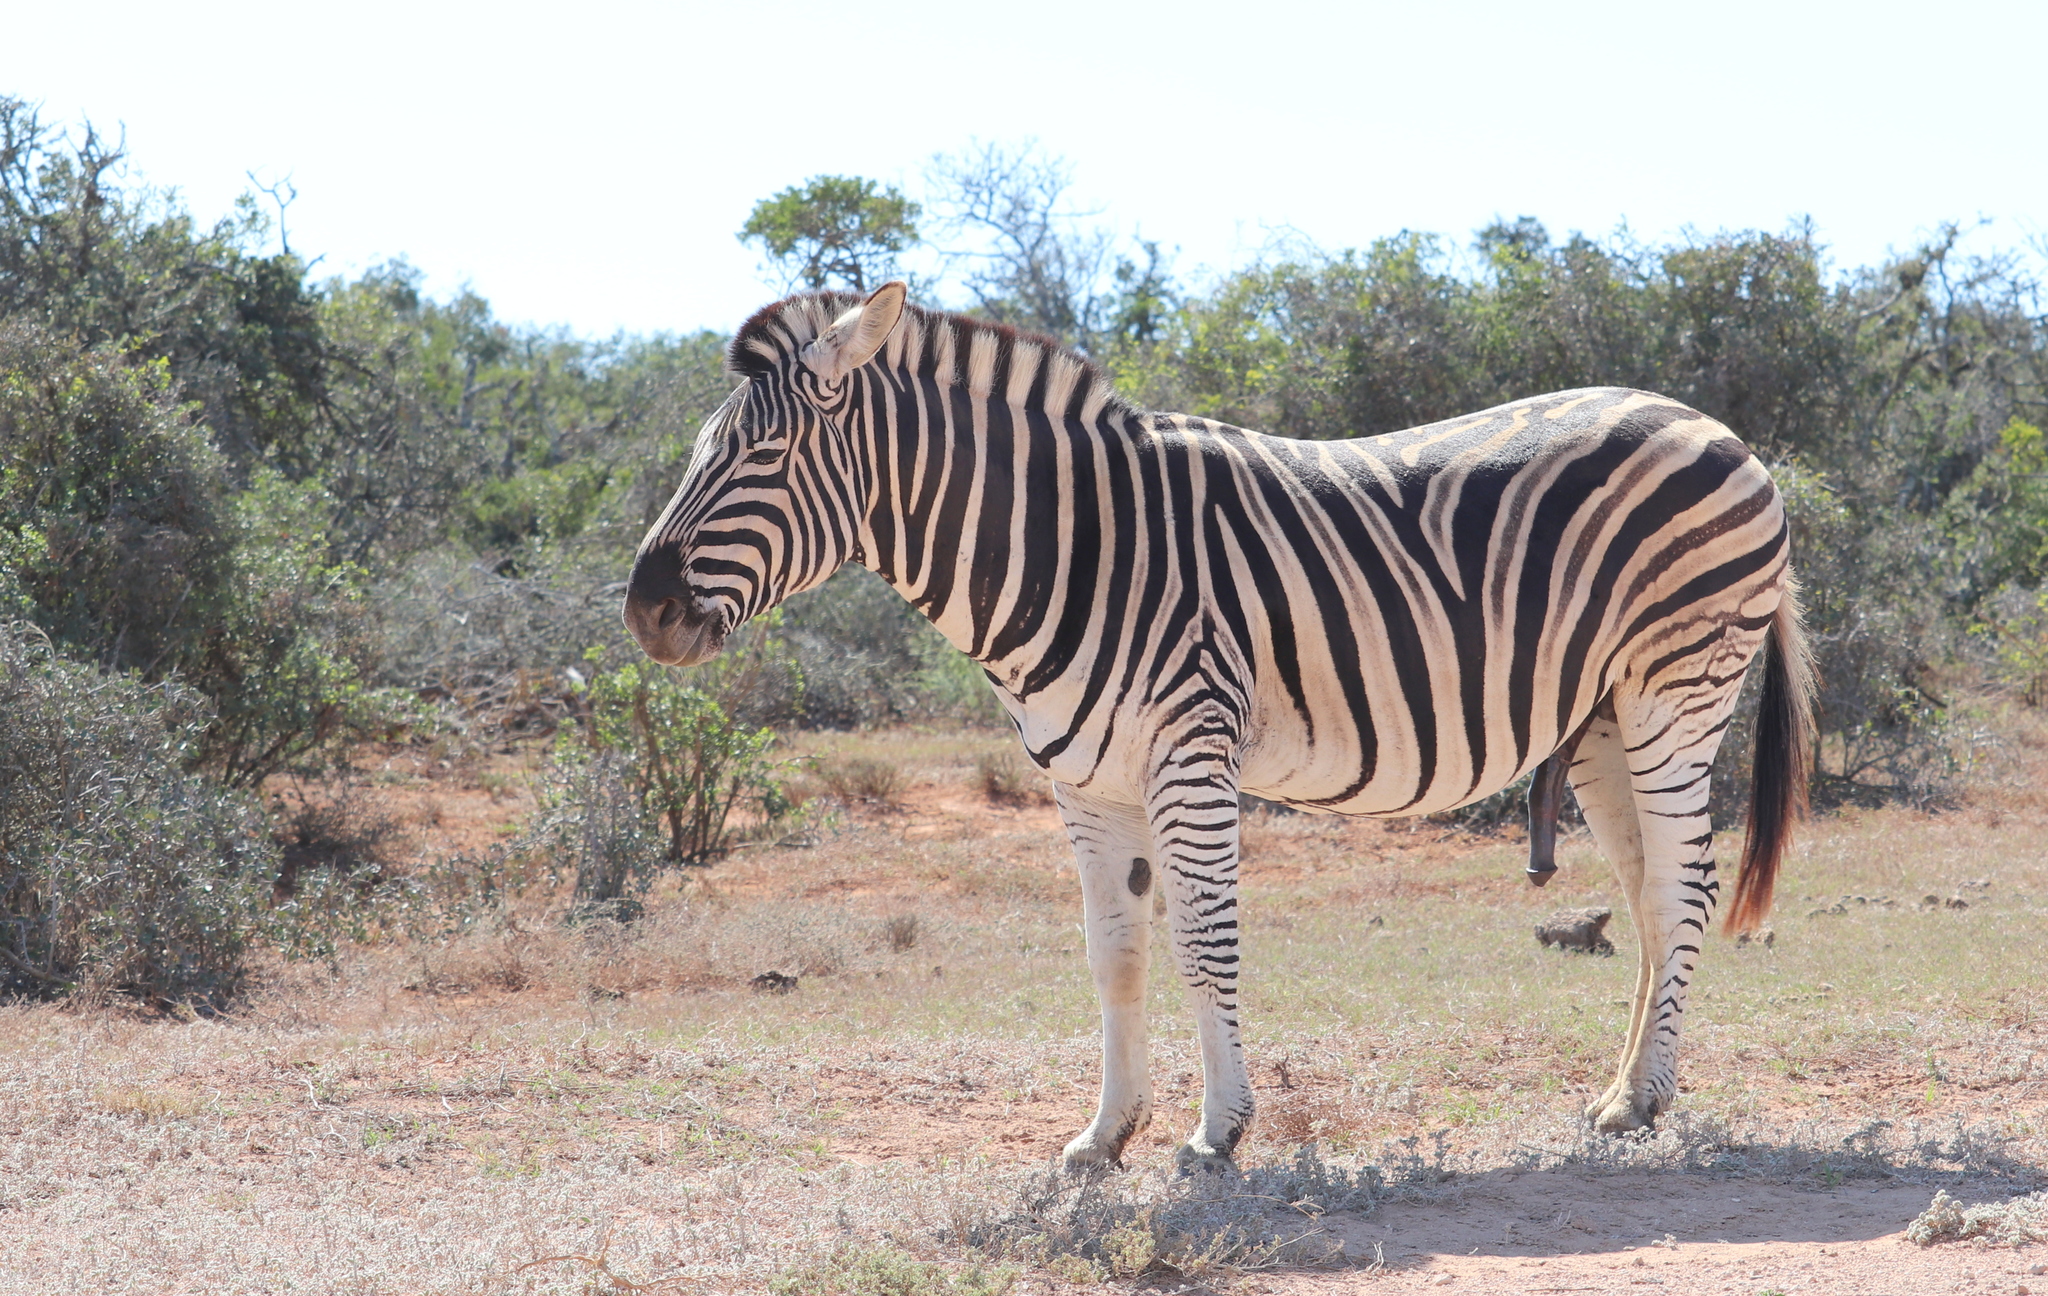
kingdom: Animalia
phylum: Chordata
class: Mammalia
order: Perissodactyla
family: Equidae
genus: Equus
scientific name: Equus quagga
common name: Plains zebra
